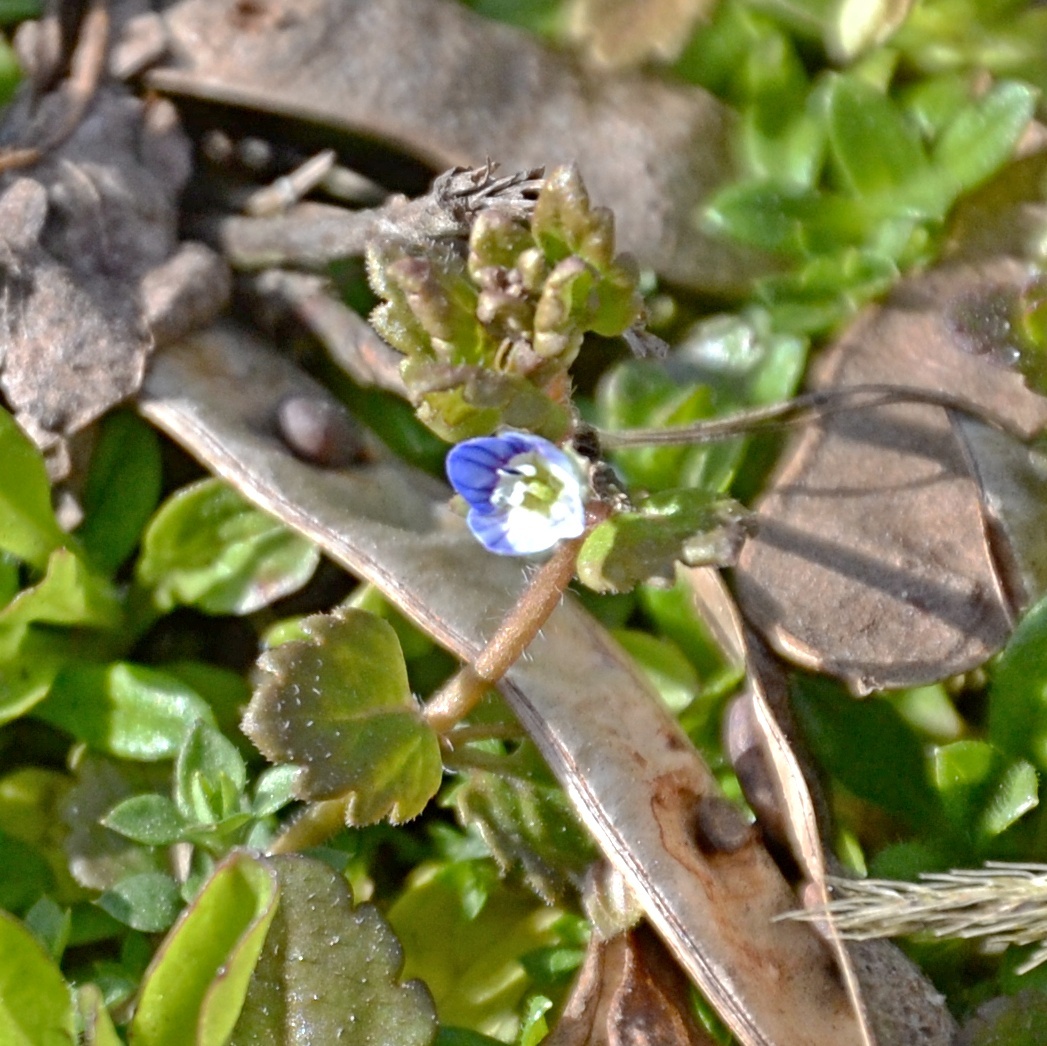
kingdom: Plantae
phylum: Tracheophyta
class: Magnoliopsida
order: Lamiales
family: Plantaginaceae
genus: Veronica
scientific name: Veronica polita
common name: Grey field-speedwell
